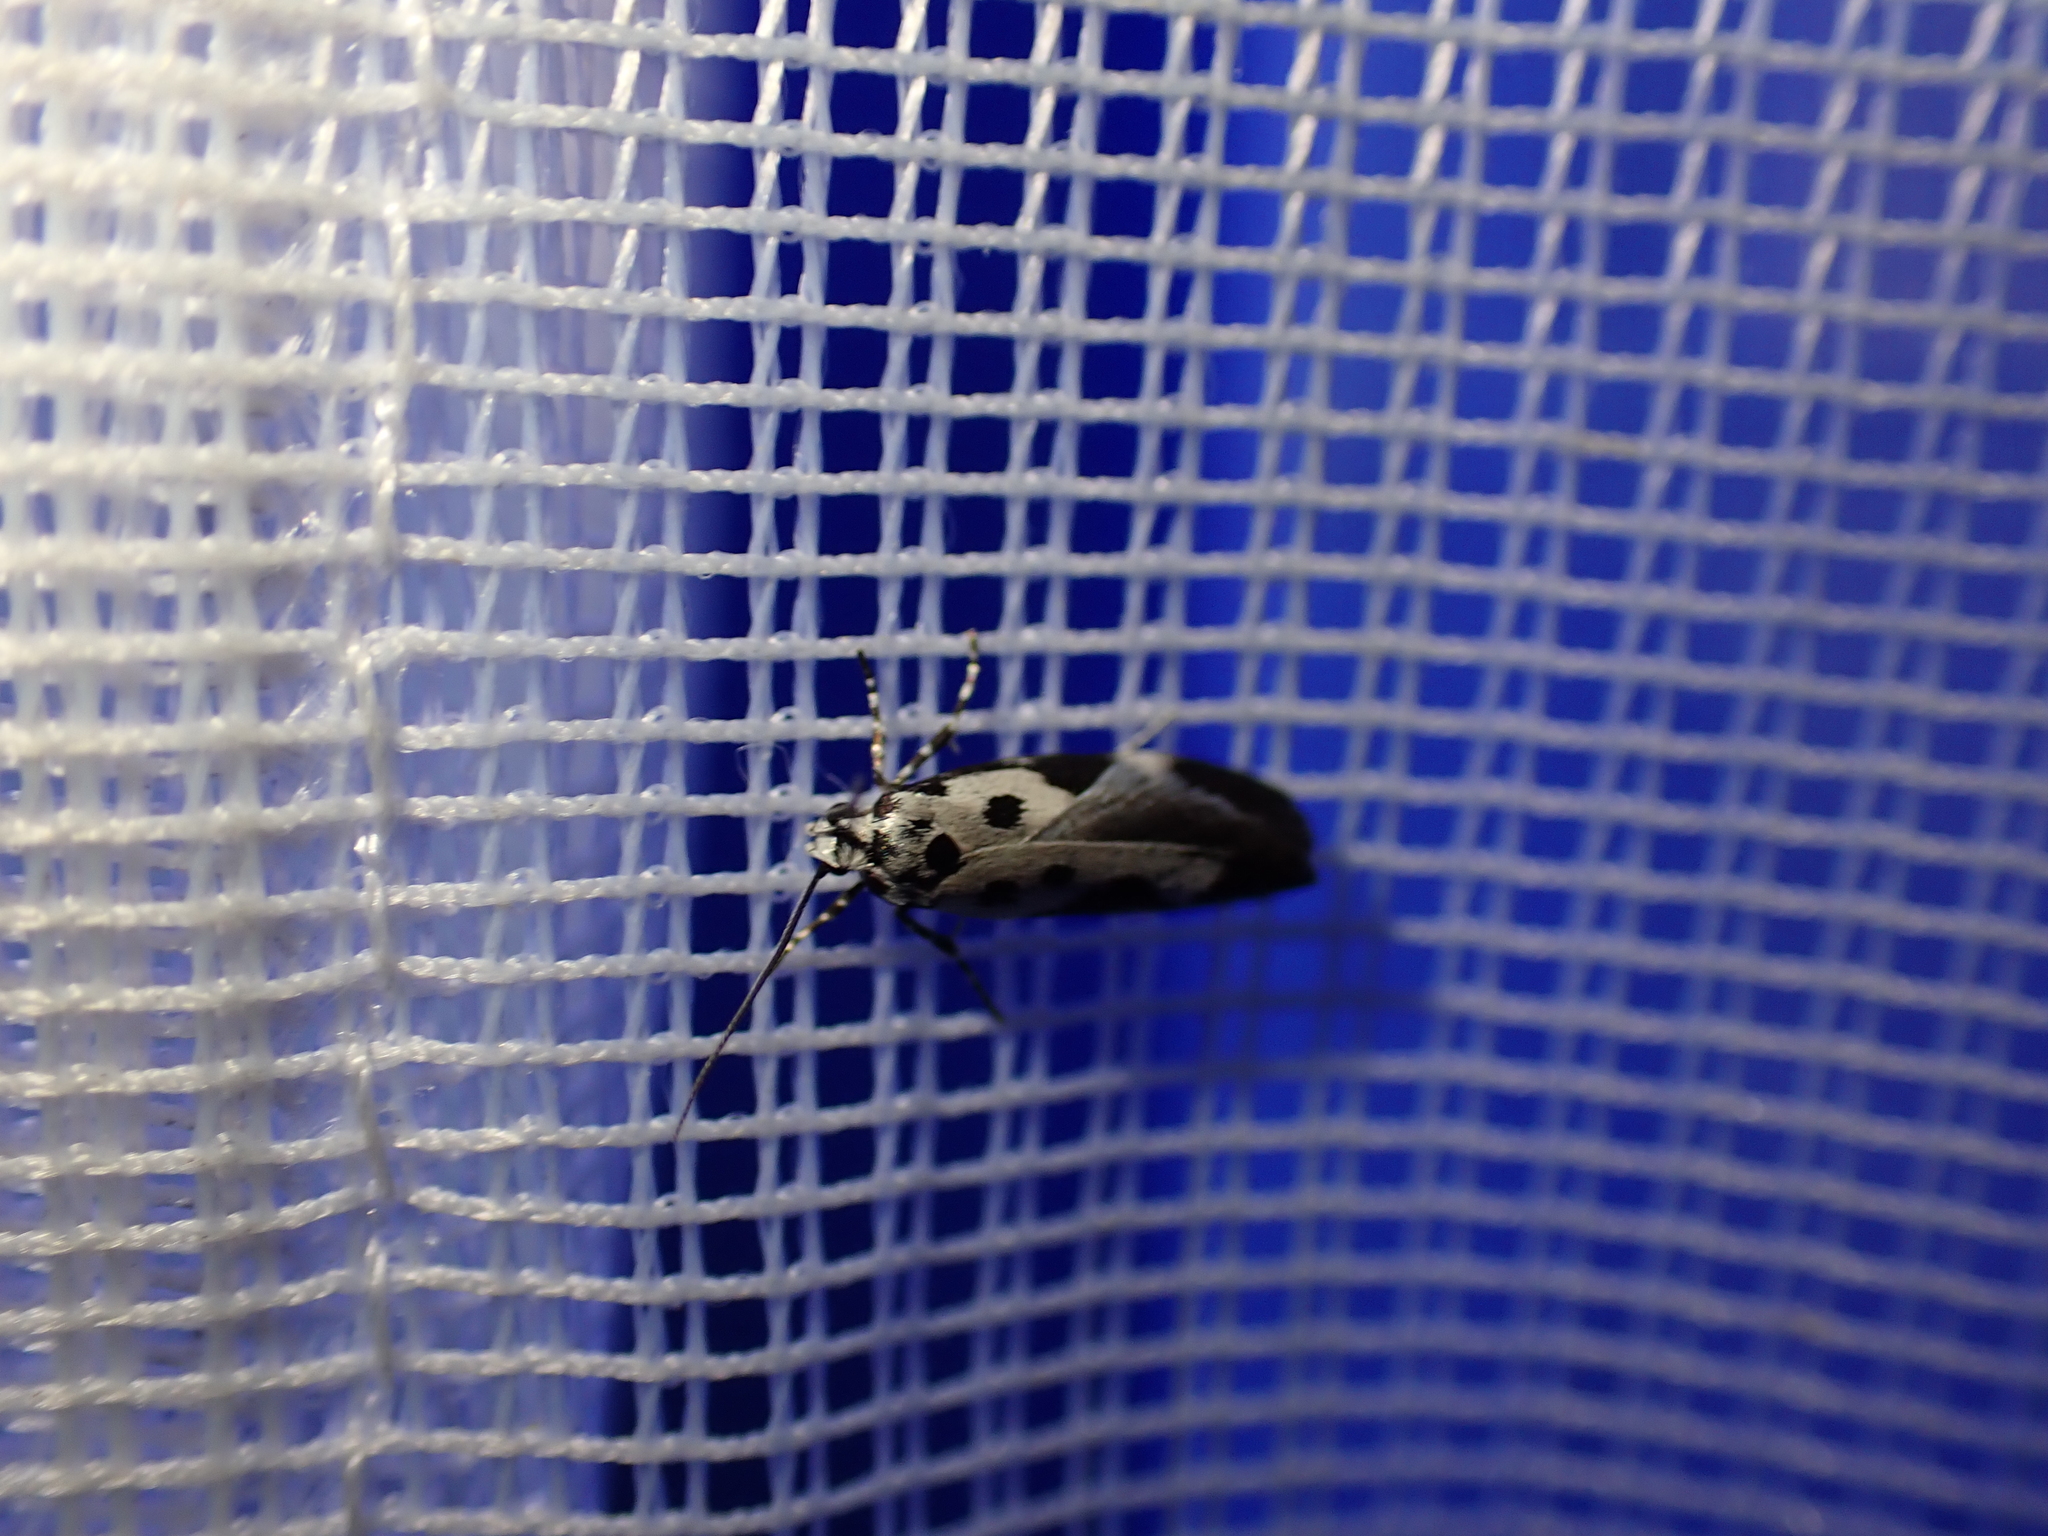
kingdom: Animalia
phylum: Arthropoda
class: Insecta
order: Lepidoptera
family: Ethmiidae
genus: Ethmia
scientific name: Ethmia quadrillella
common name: Comfrey ermel
